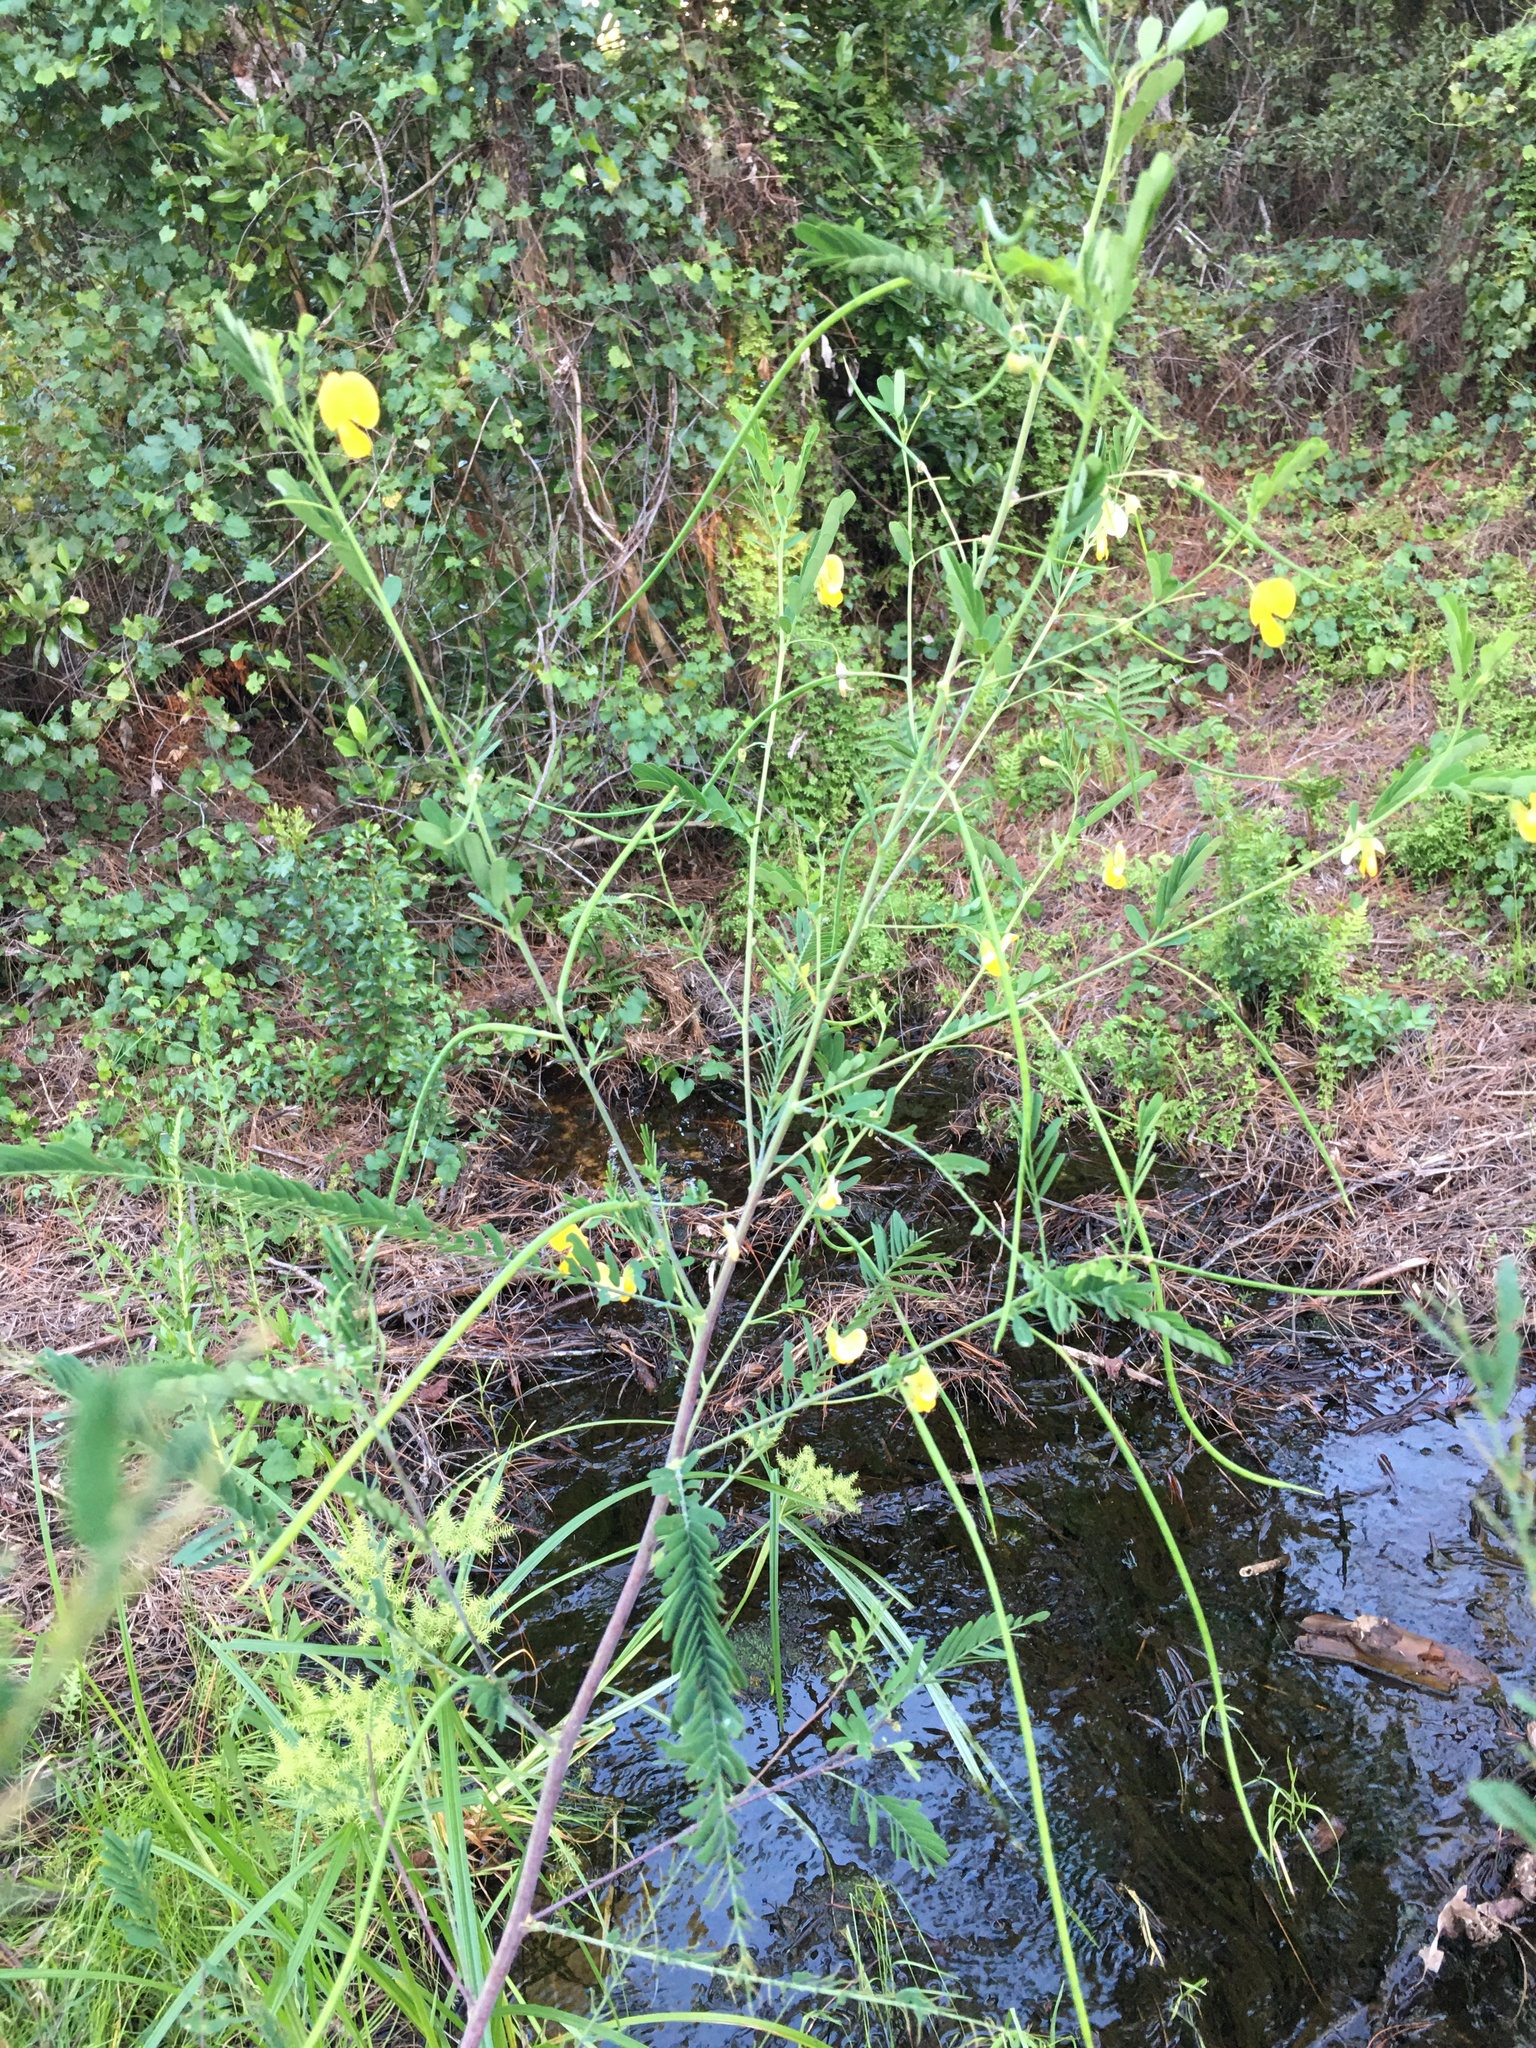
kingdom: Plantae
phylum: Tracheophyta
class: Magnoliopsida
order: Fabales
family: Fabaceae
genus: Sesbania
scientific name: Sesbania herbacea
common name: Bigpod sesbania
